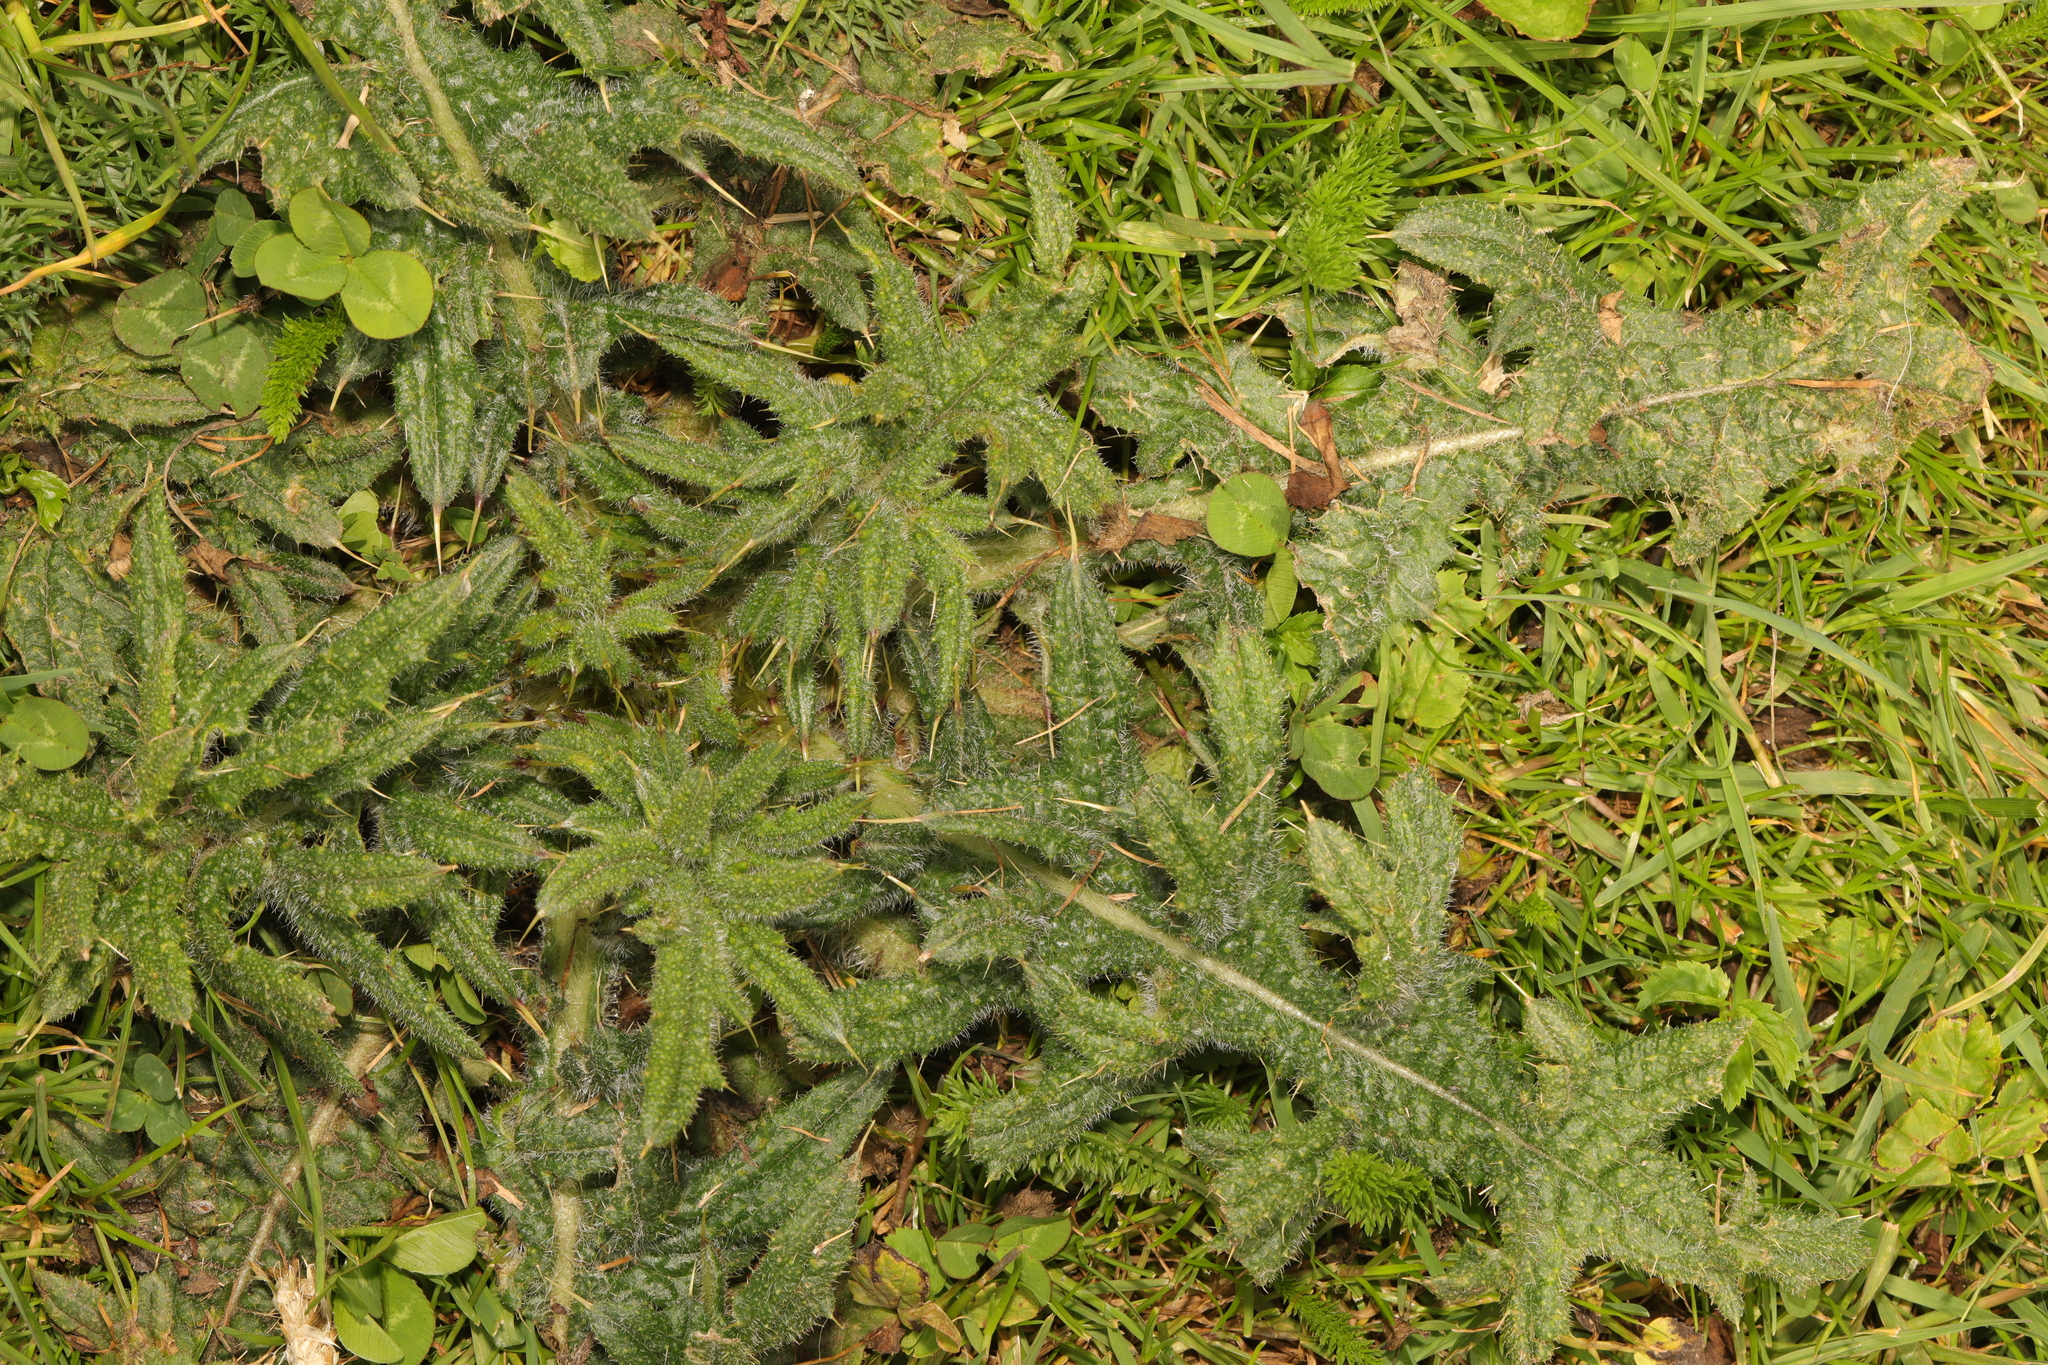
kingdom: Plantae
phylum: Tracheophyta
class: Magnoliopsida
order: Asterales
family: Asteraceae
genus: Cirsium
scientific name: Cirsium vulgare
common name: Bull thistle
